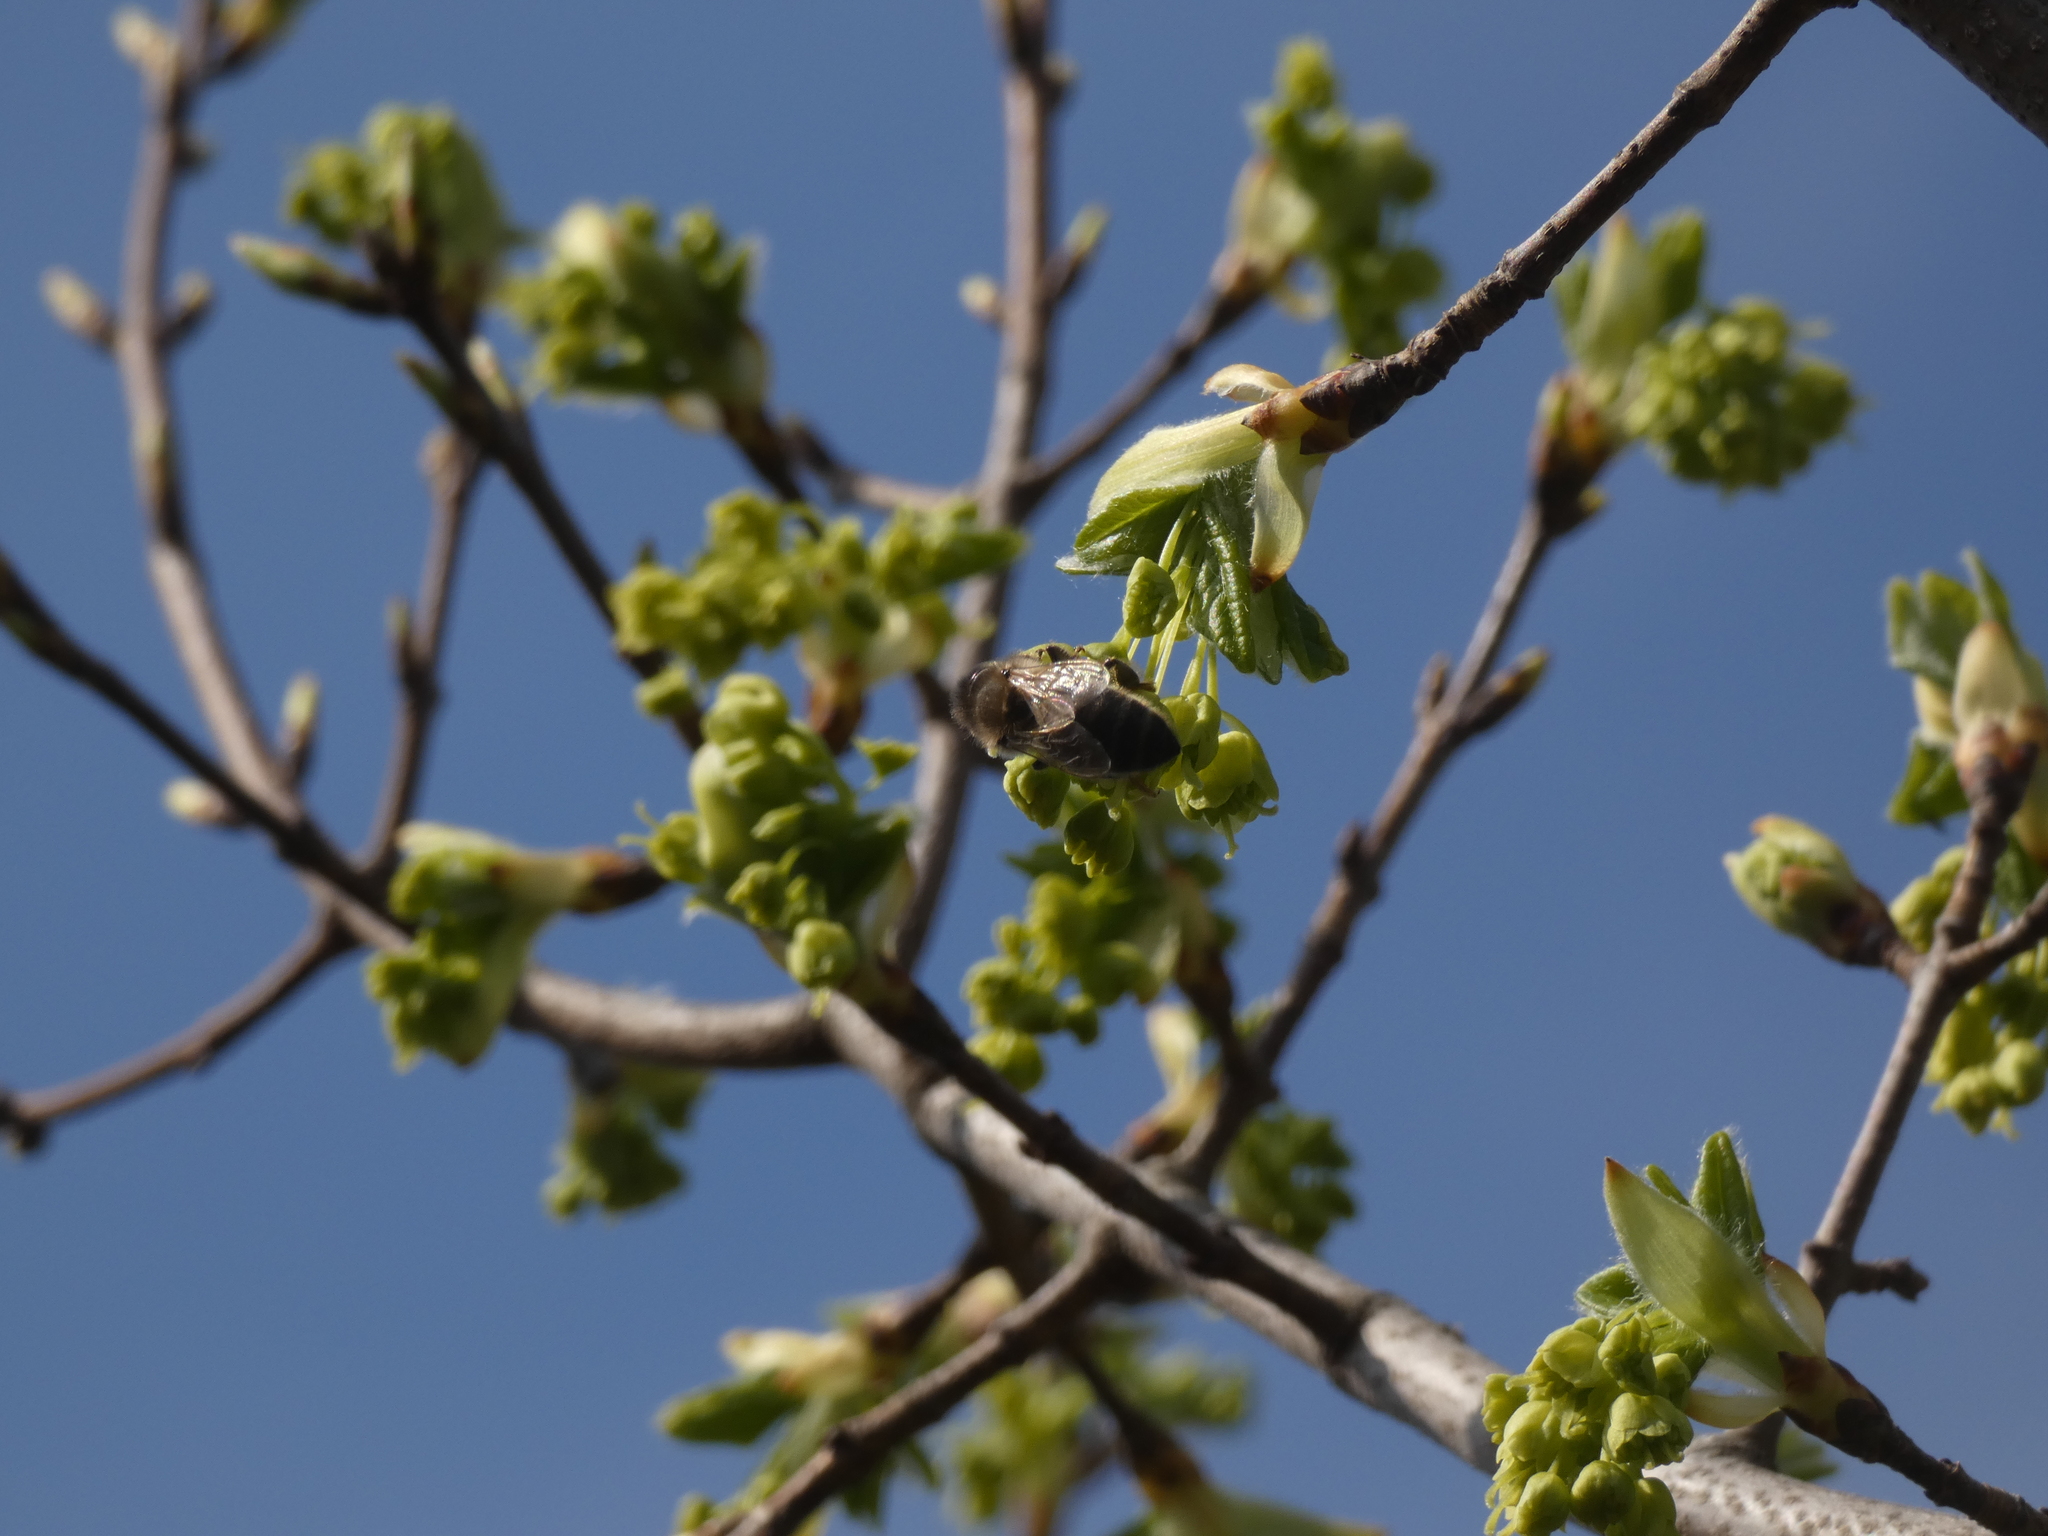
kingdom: Animalia
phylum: Arthropoda
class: Insecta
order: Hymenoptera
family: Apidae
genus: Apis
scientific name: Apis mellifera
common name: Honey bee
